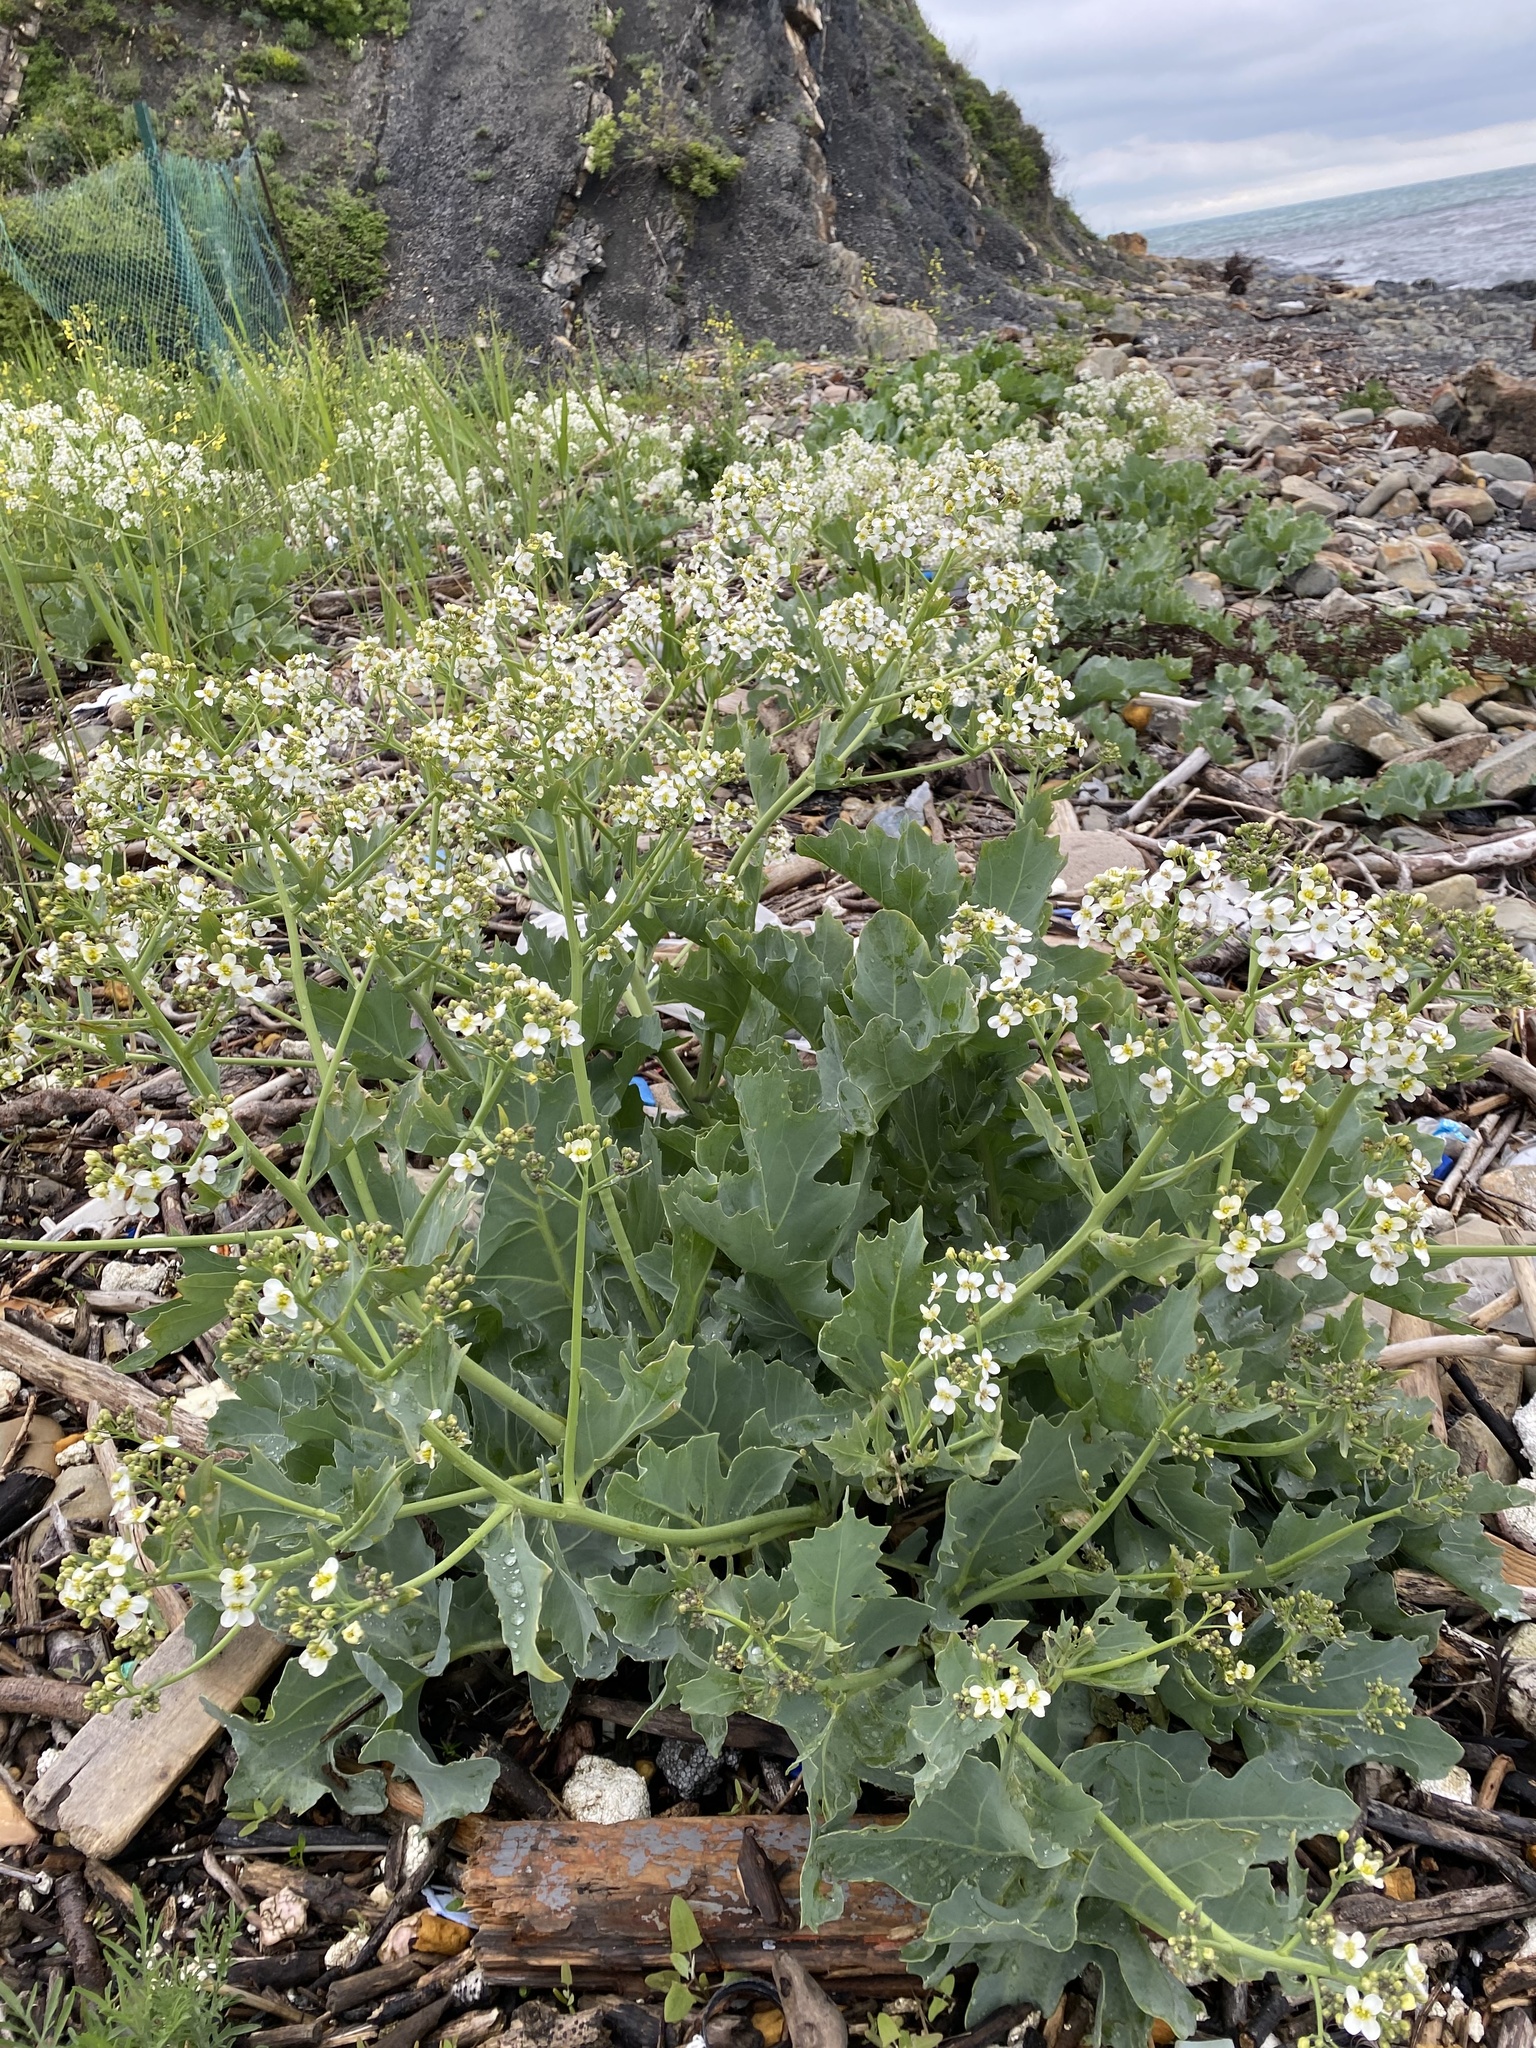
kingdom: Plantae
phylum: Tracheophyta
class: Magnoliopsida
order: Brassicales
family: Brassicaceae
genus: Crambe
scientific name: Crambe maritima
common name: Sea-kale
